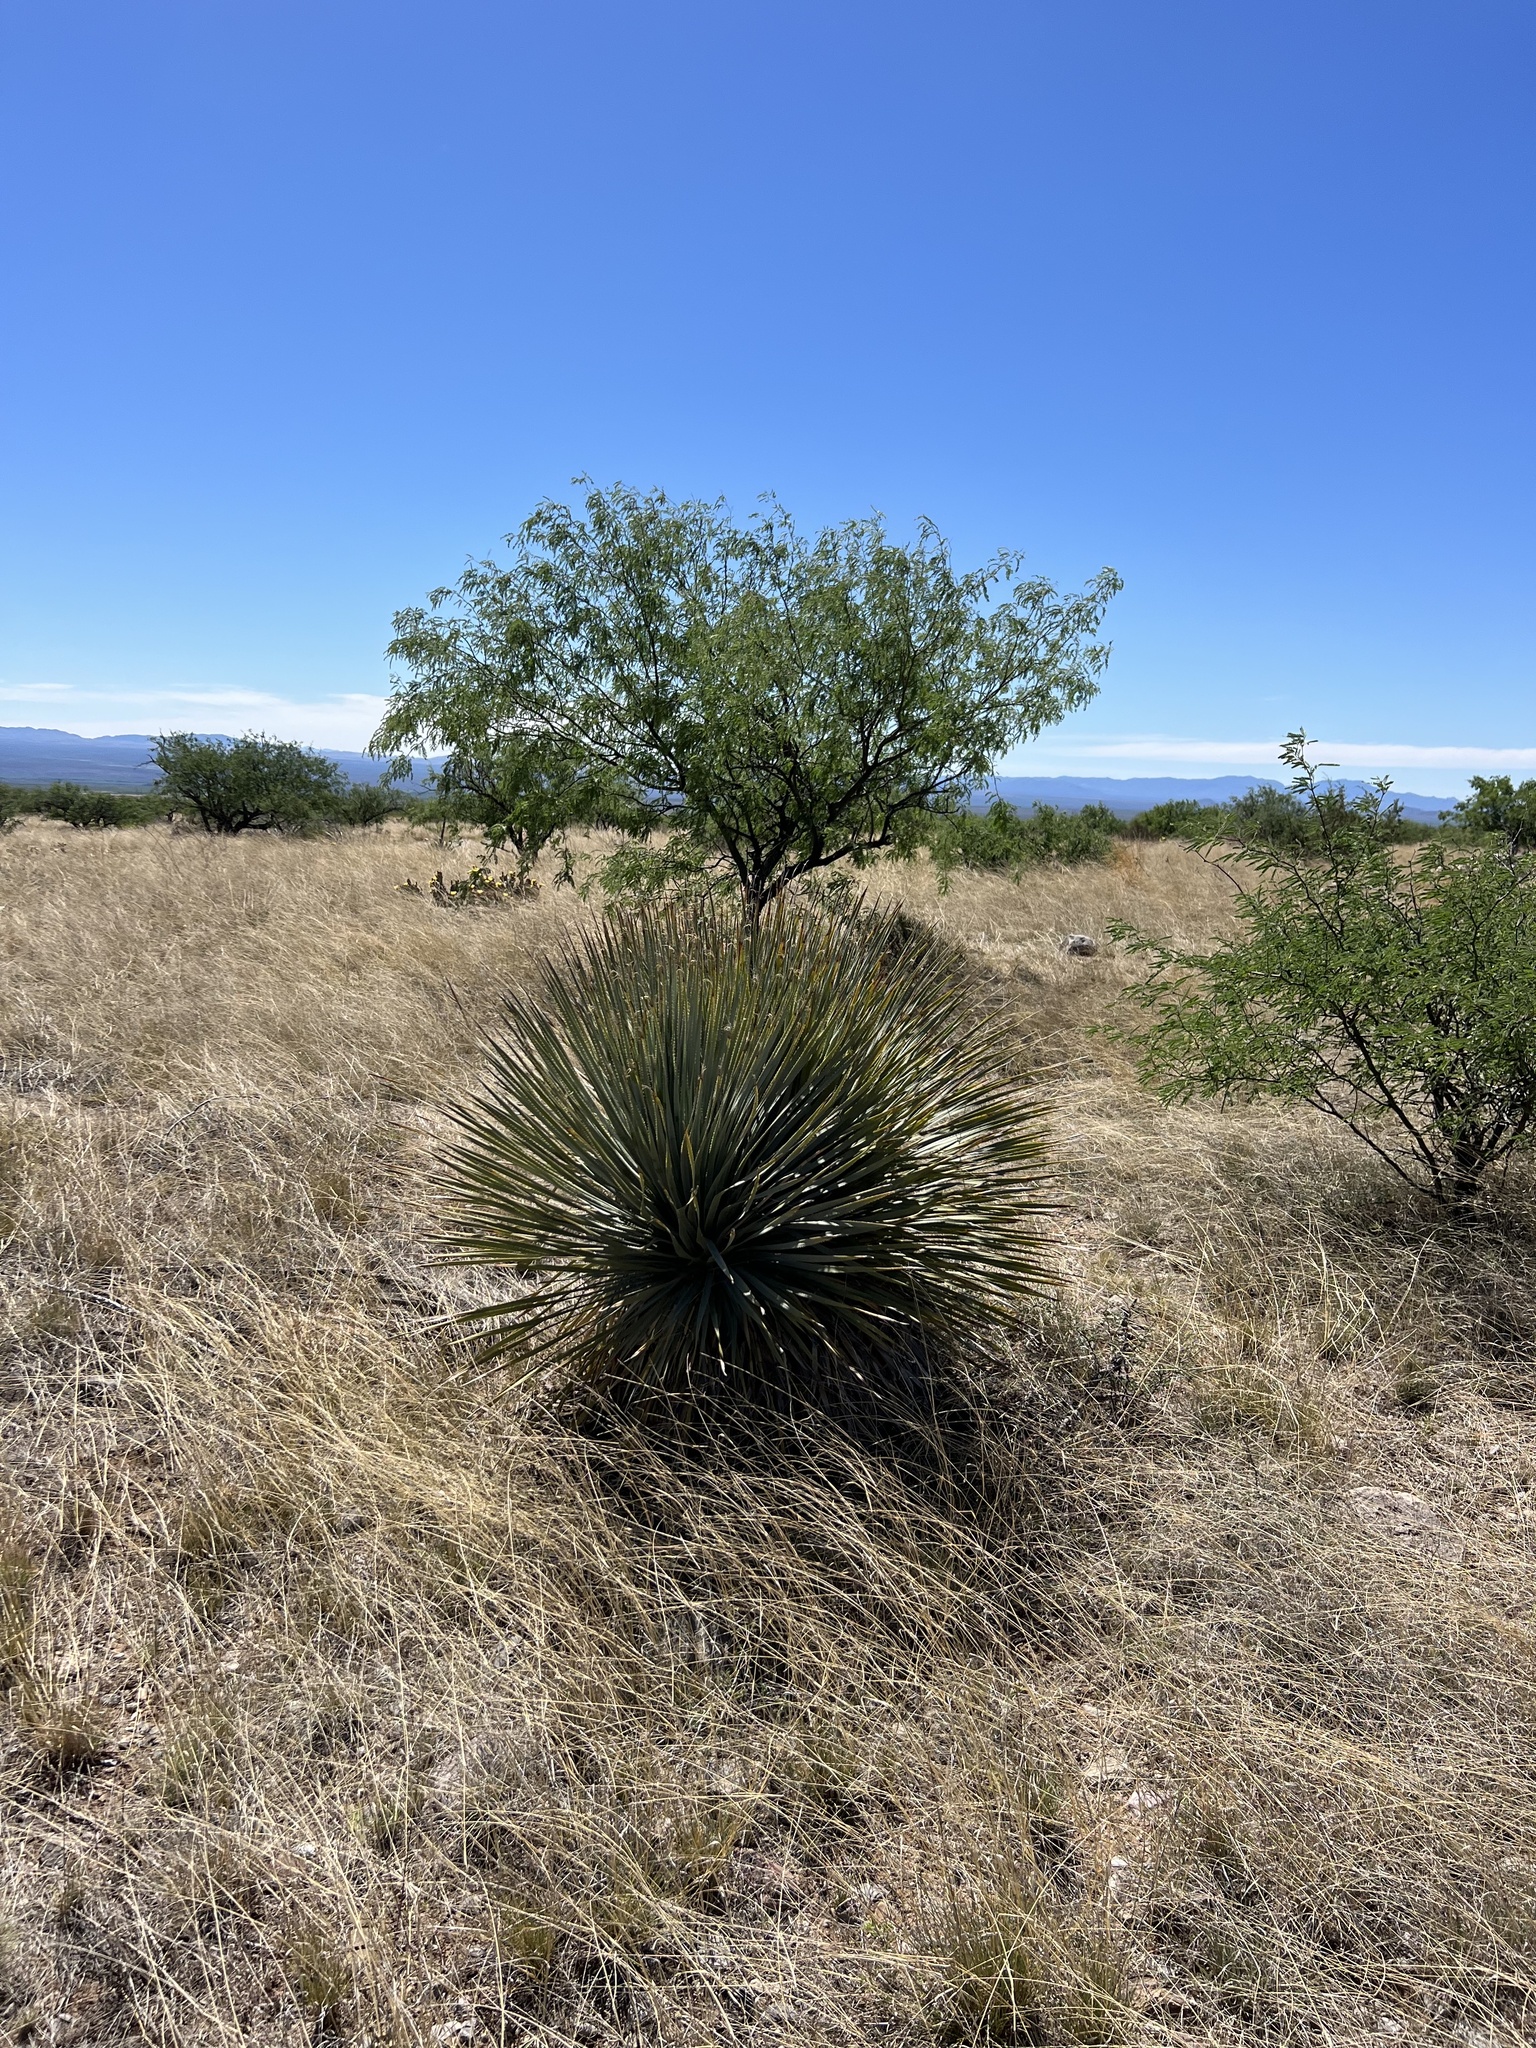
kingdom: Plantae
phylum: Tracheophyta
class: Liliopsida
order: Asparagales
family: Asparagaceae
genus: Dasylirion
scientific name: Dasylirion wheeleri
